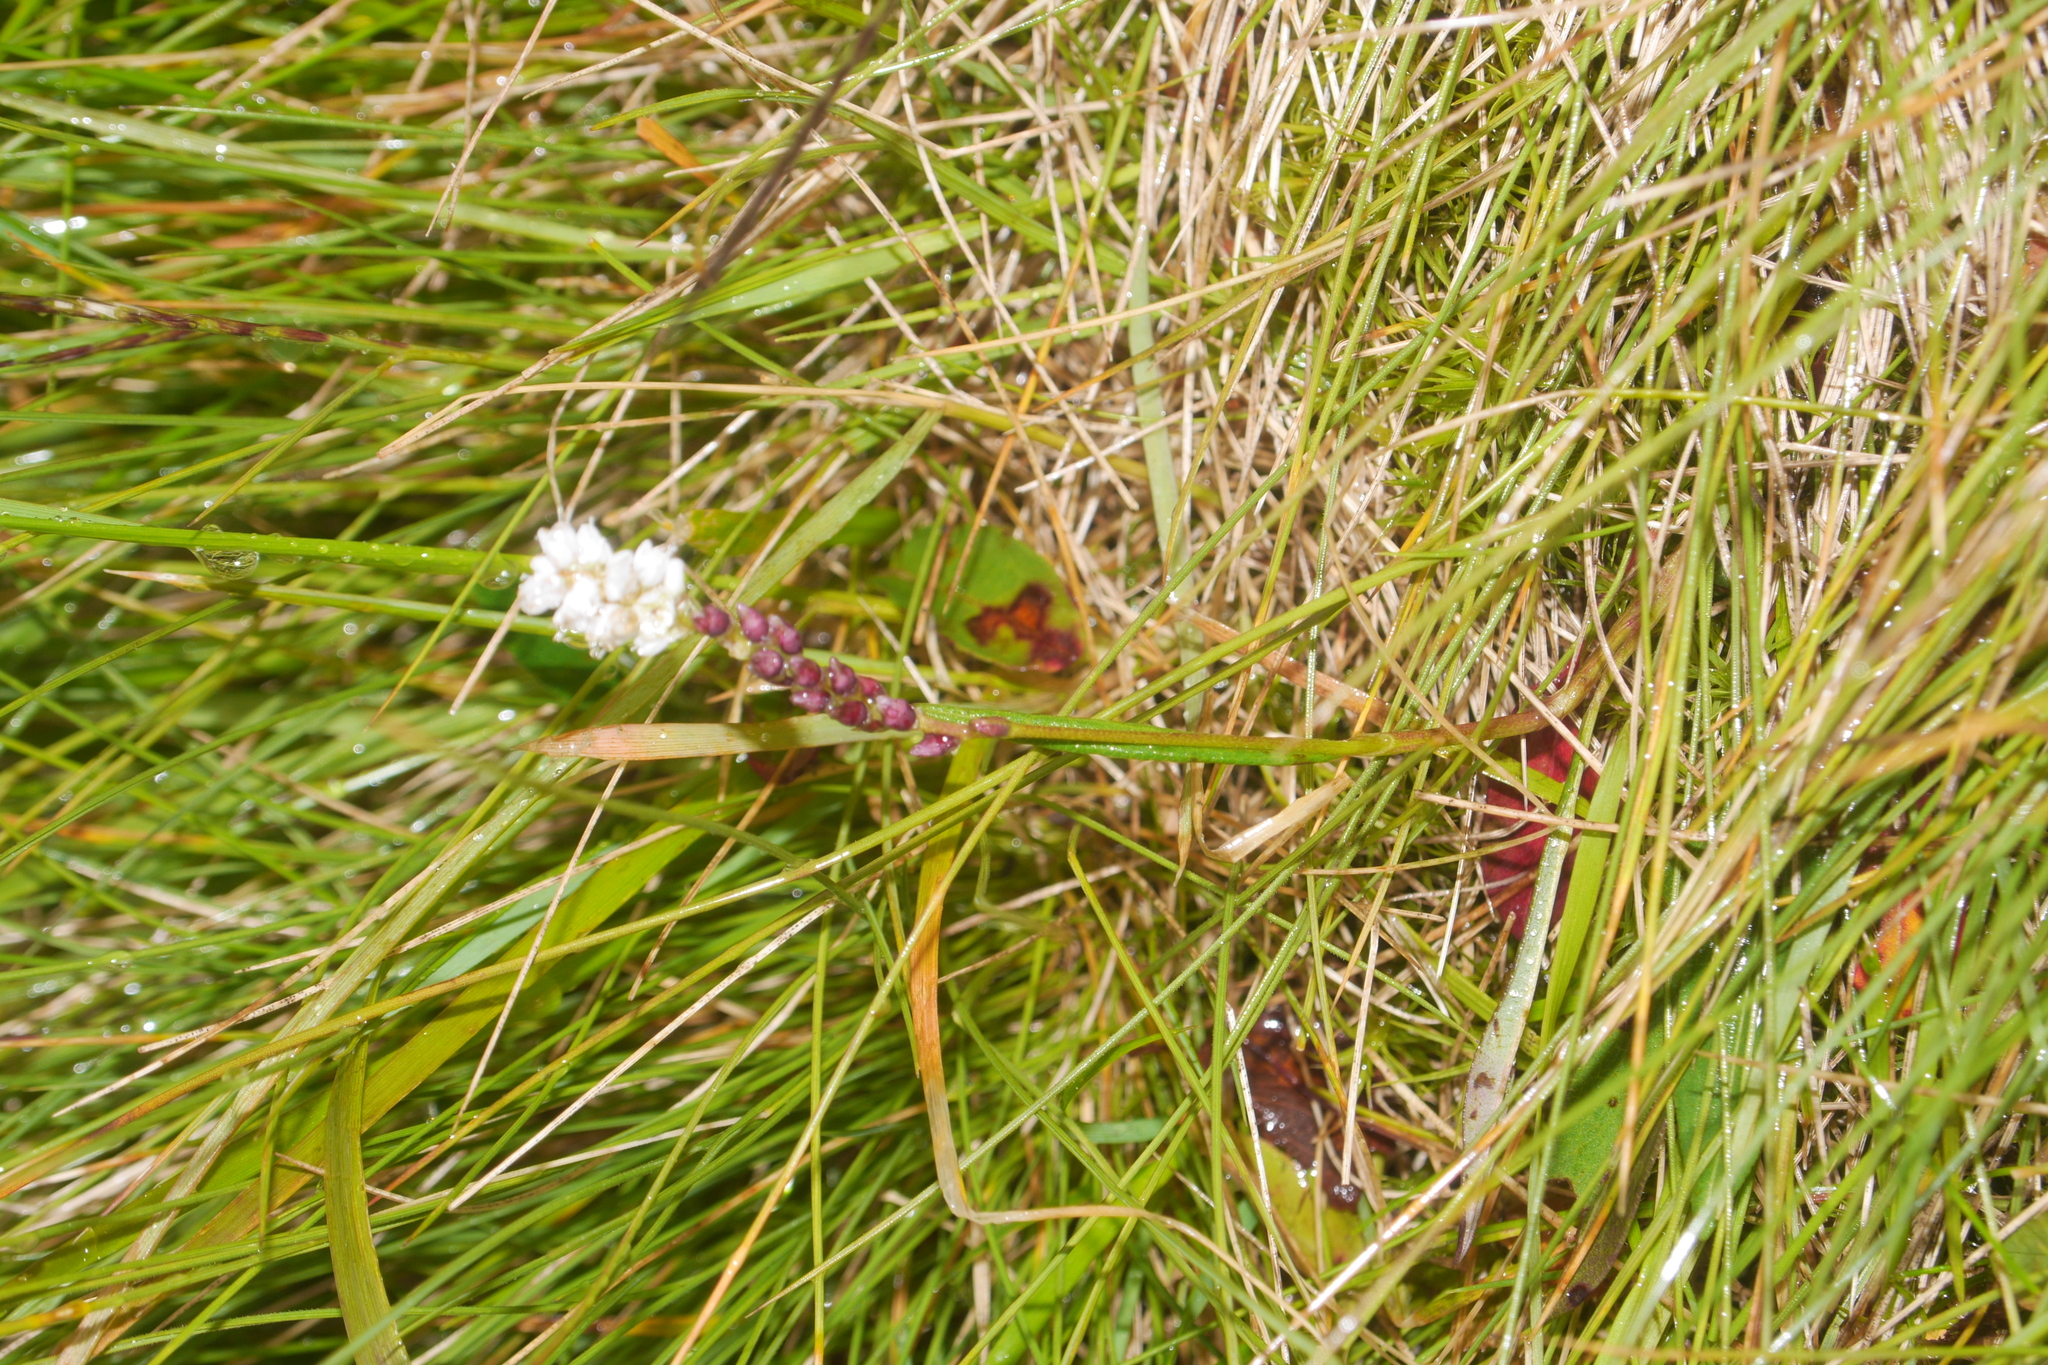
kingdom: Plantae
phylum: Tracheophyta
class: Magnoliopsida
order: Caryophyllales
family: Polygonaceae
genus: Bistorta
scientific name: Bistorta vivipara
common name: Alpine bistort
